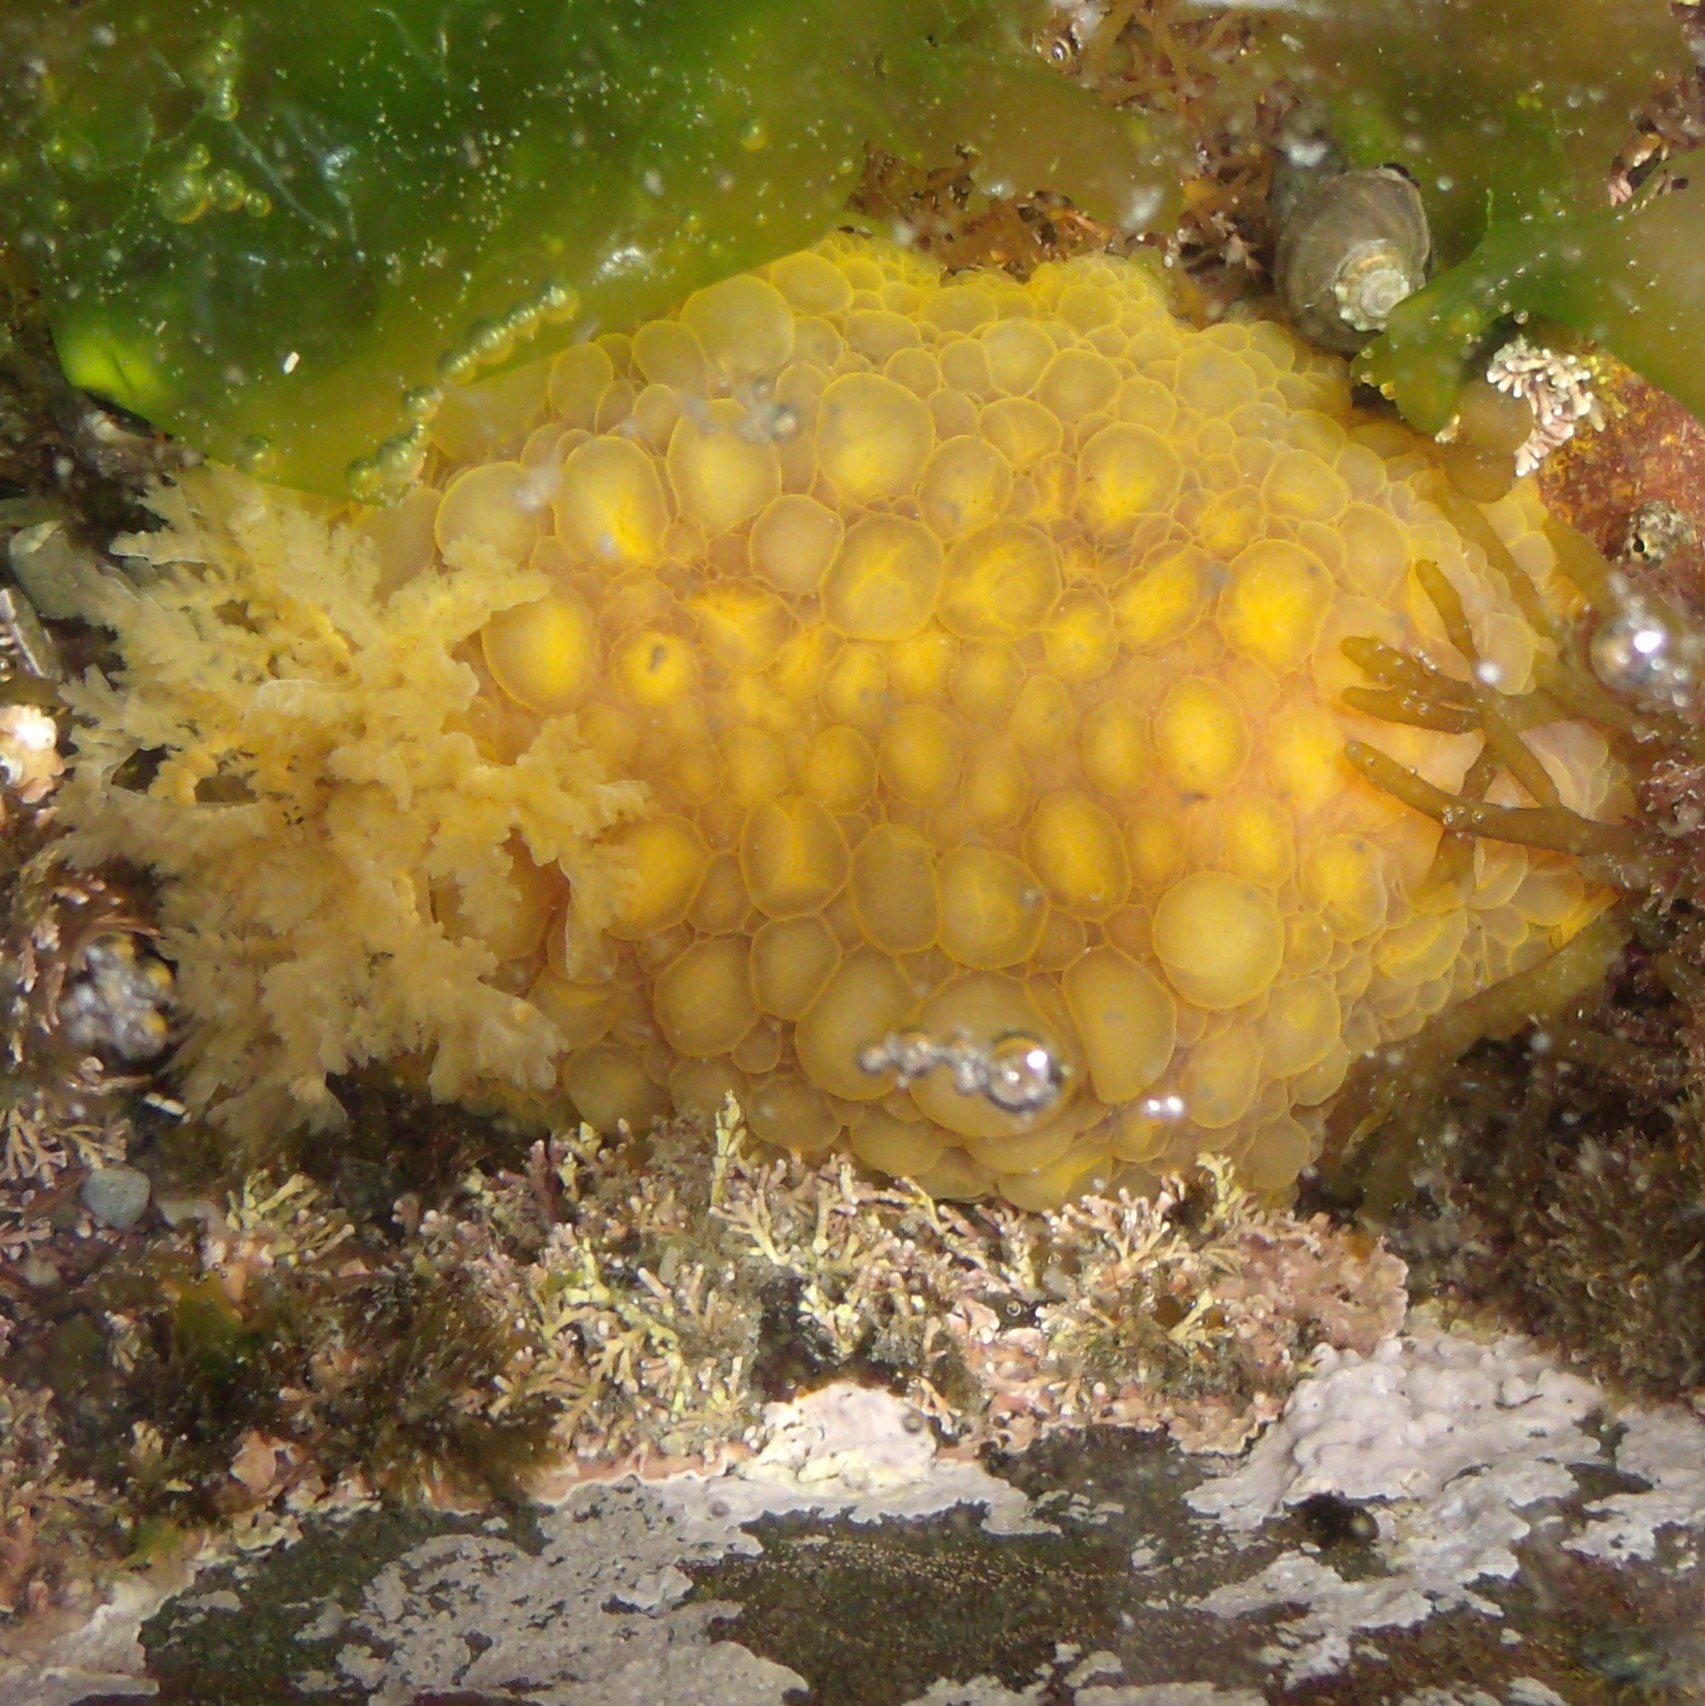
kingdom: Animalia
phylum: Mollusca
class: Gastropoda
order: Nudibranchia
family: Dorididae
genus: Doris
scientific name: Doris wellingtonensis
